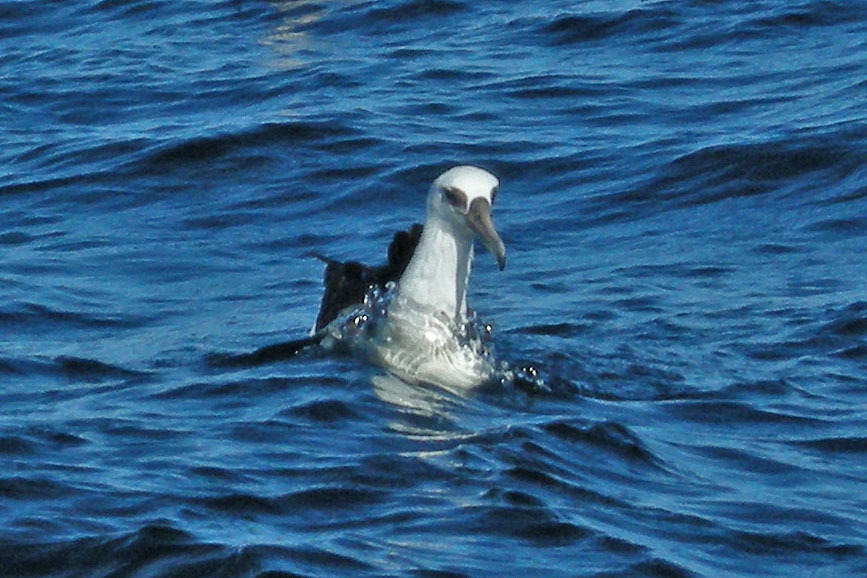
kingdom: Animalia
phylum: Chordata
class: Aves
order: Procellariiformes
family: Diomedeidae
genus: Phoebastria
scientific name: Phoebastria immutabilis
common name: Laysan albatross
